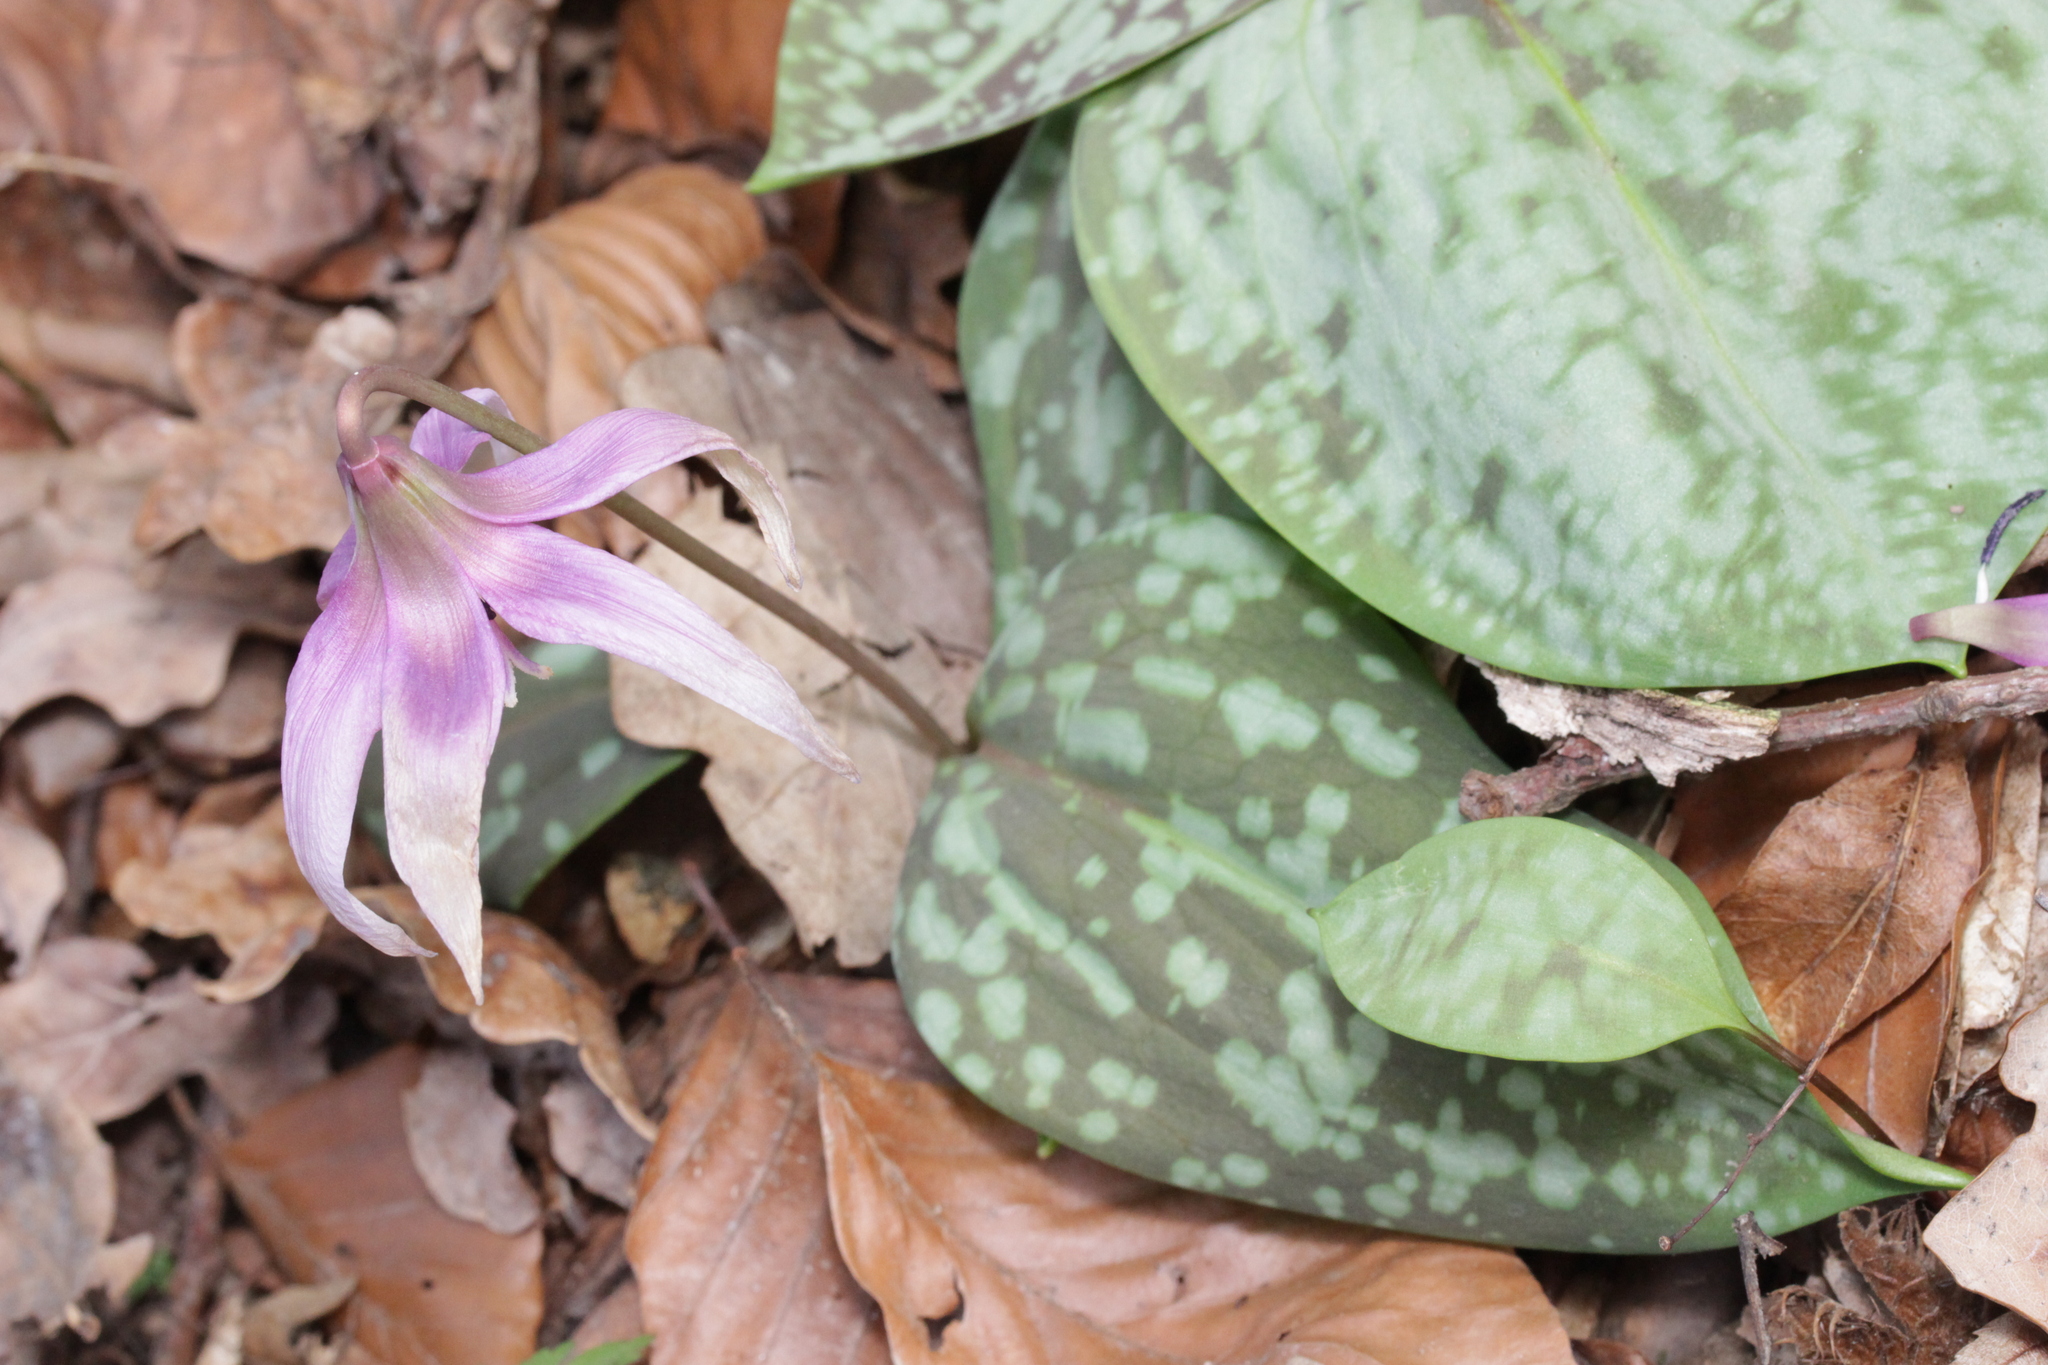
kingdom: Plantae
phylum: Tracheophyta
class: Liliopsida
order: Liliales
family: Liliaceae
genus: Erythronium
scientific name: Erythronium dens-canis
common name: Dog's-tooth-violet
